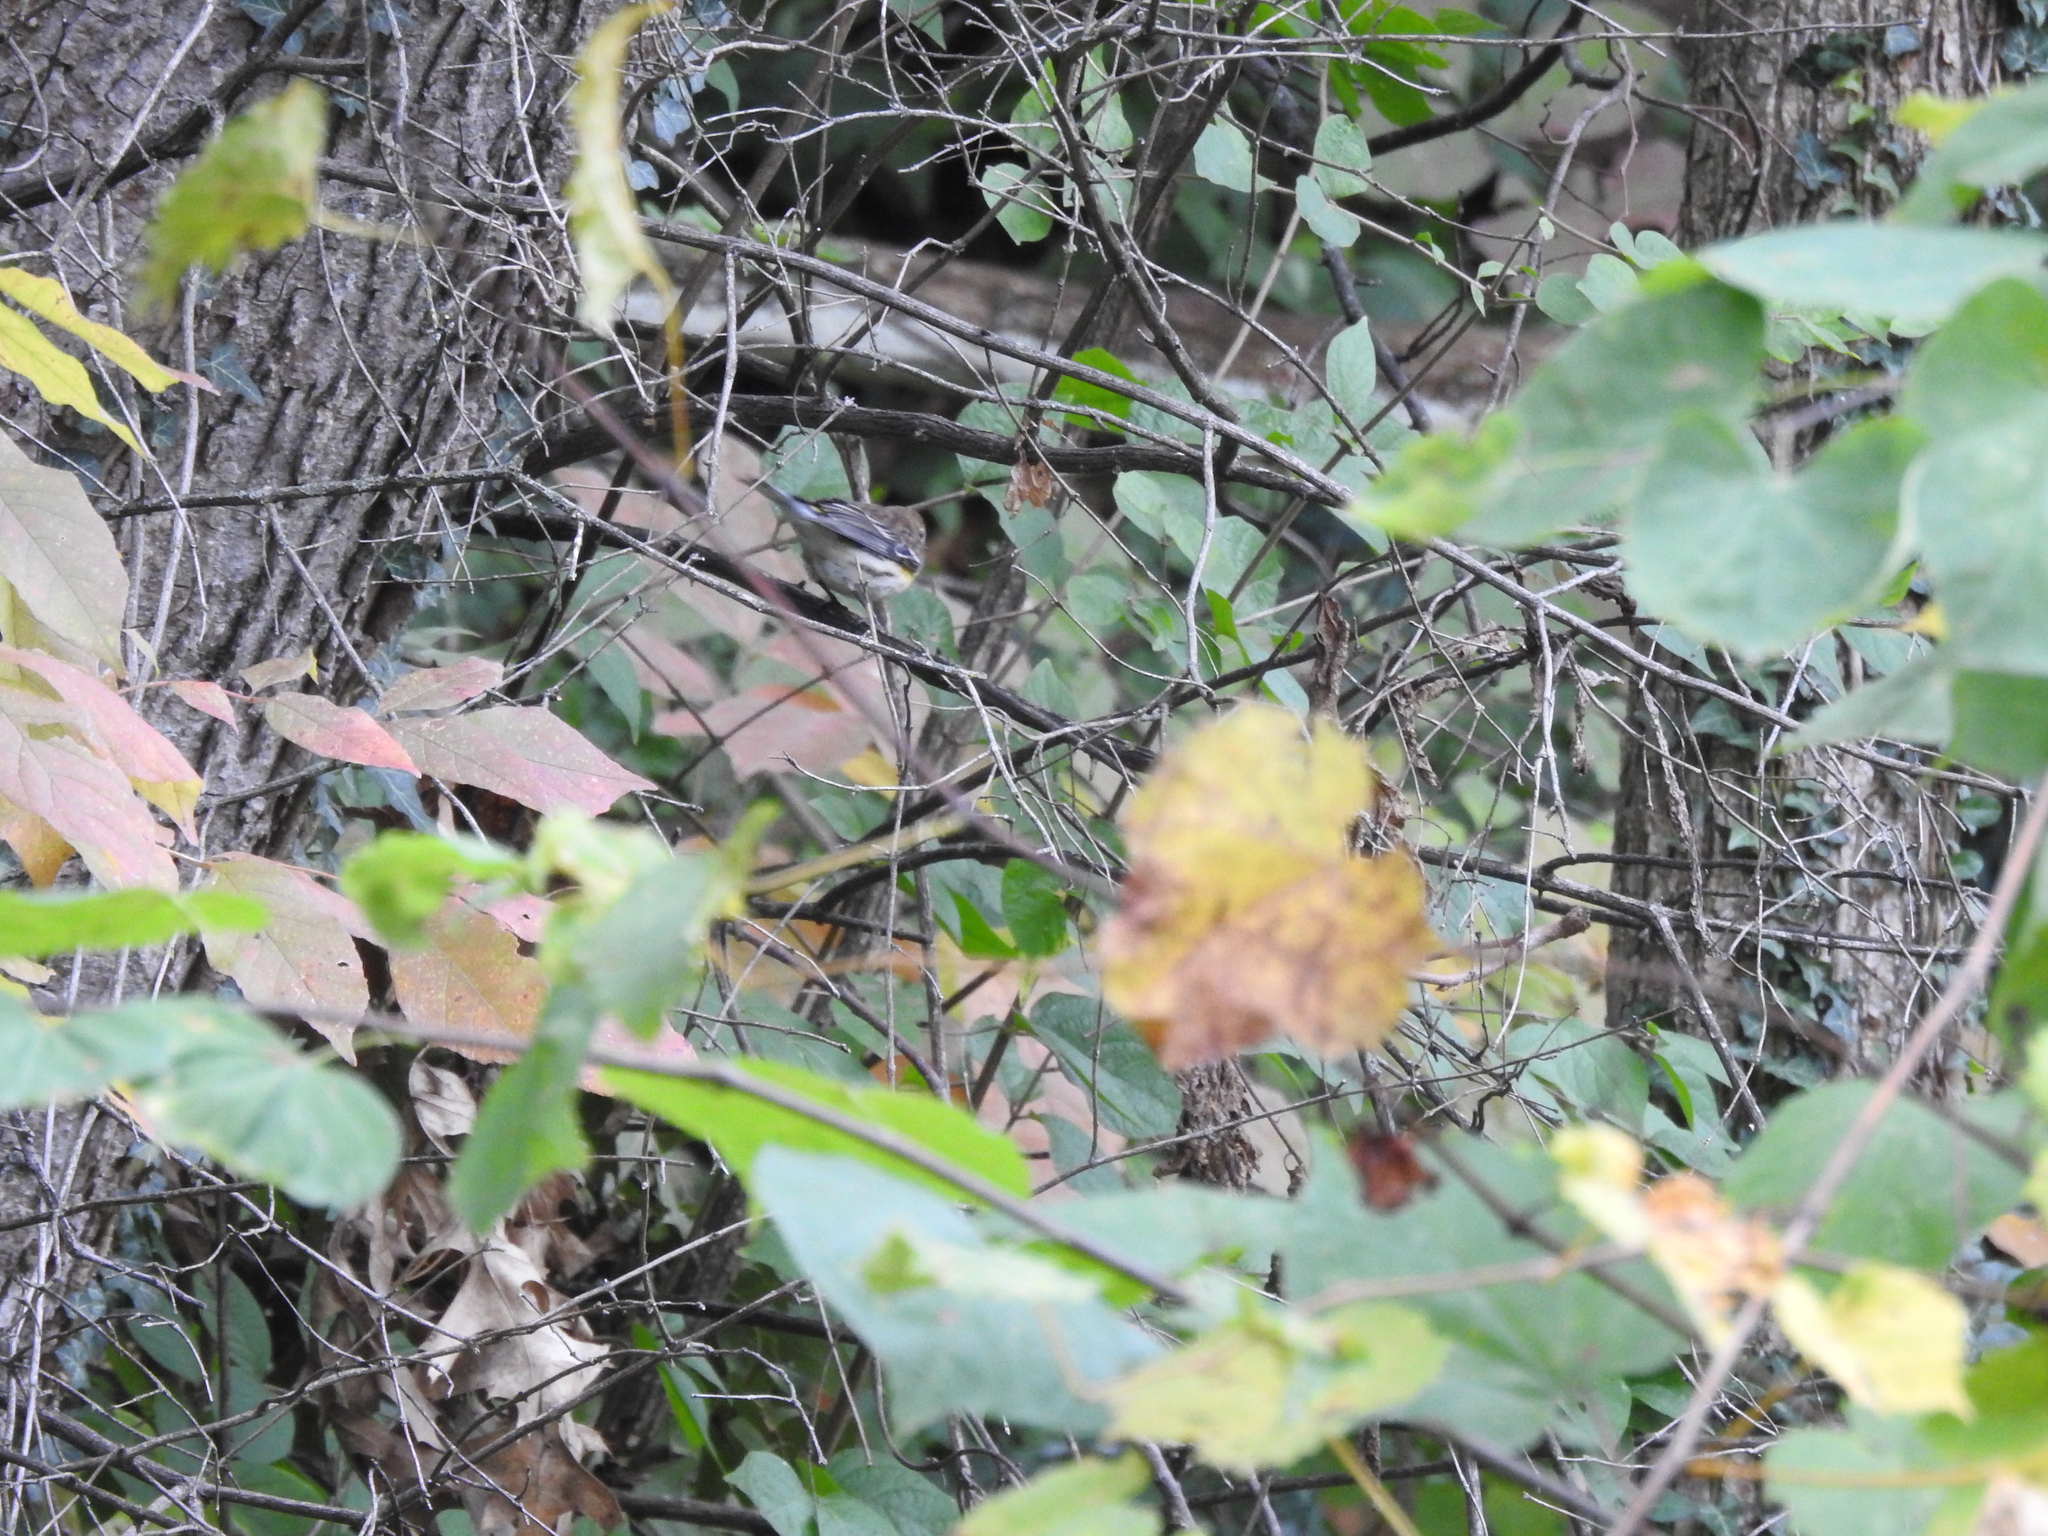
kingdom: Animalia
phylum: Chordata
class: Aves
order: Passeriformes
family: Parulidae
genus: Setophaga
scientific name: Setophaga coronata
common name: Myrtle warbler
